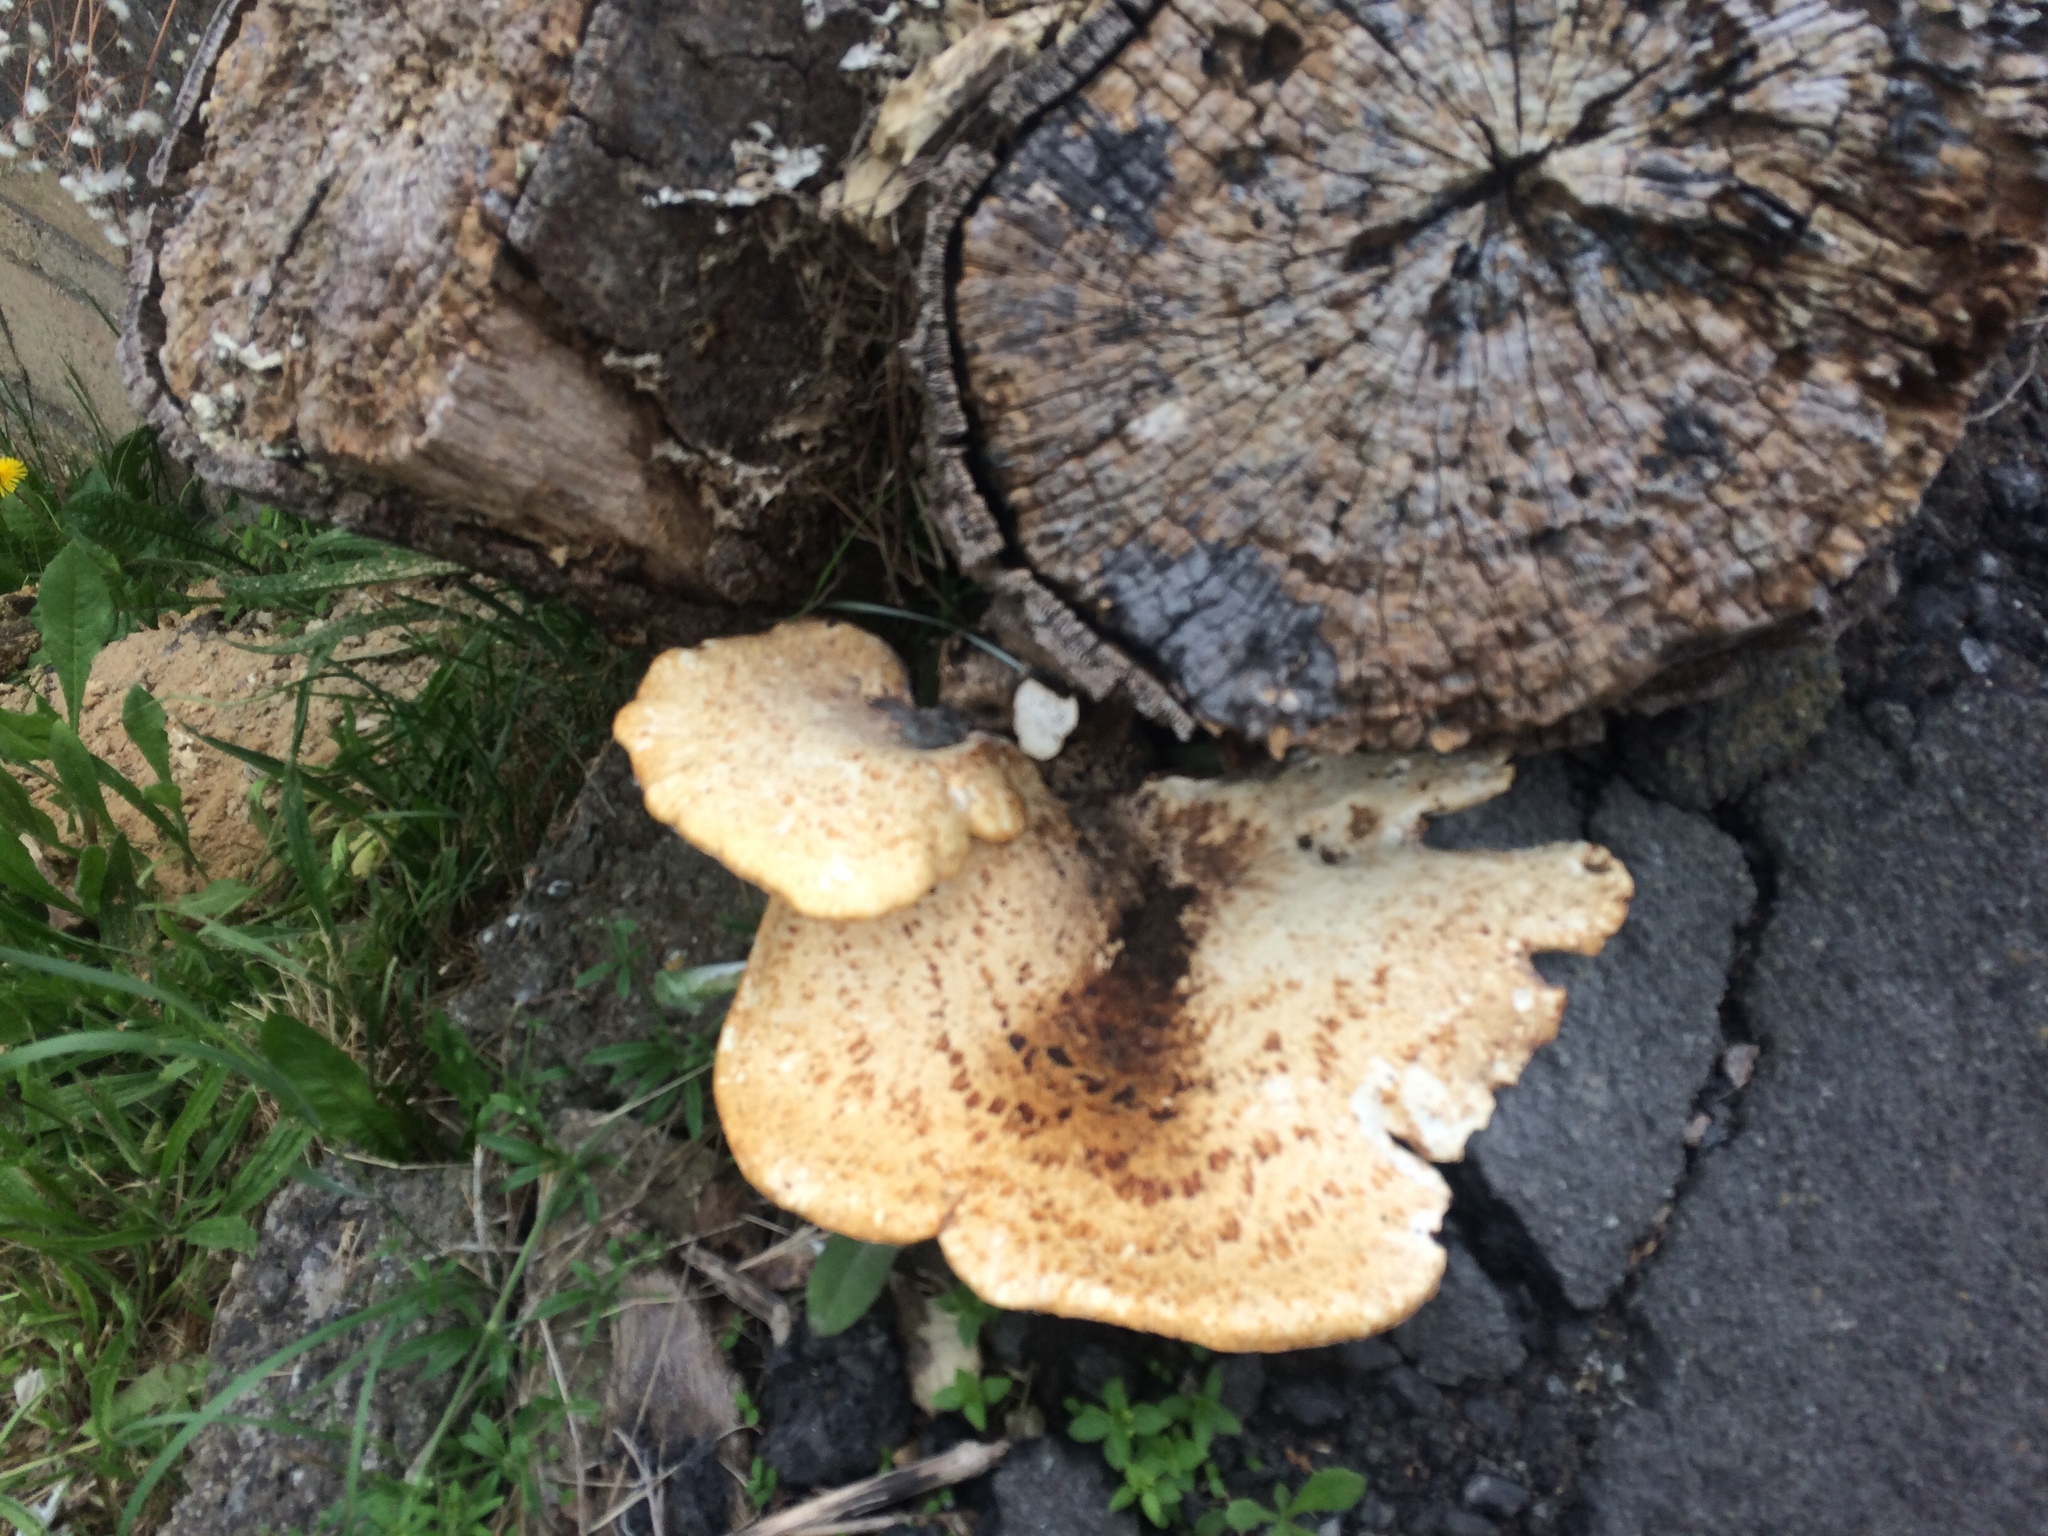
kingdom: Fungi
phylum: Basidiomycota
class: Agaricomycetes
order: Polyporales
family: Polyporaceae
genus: Cerioporus
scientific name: Cerioporus squamosus
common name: Dryad's saddle
